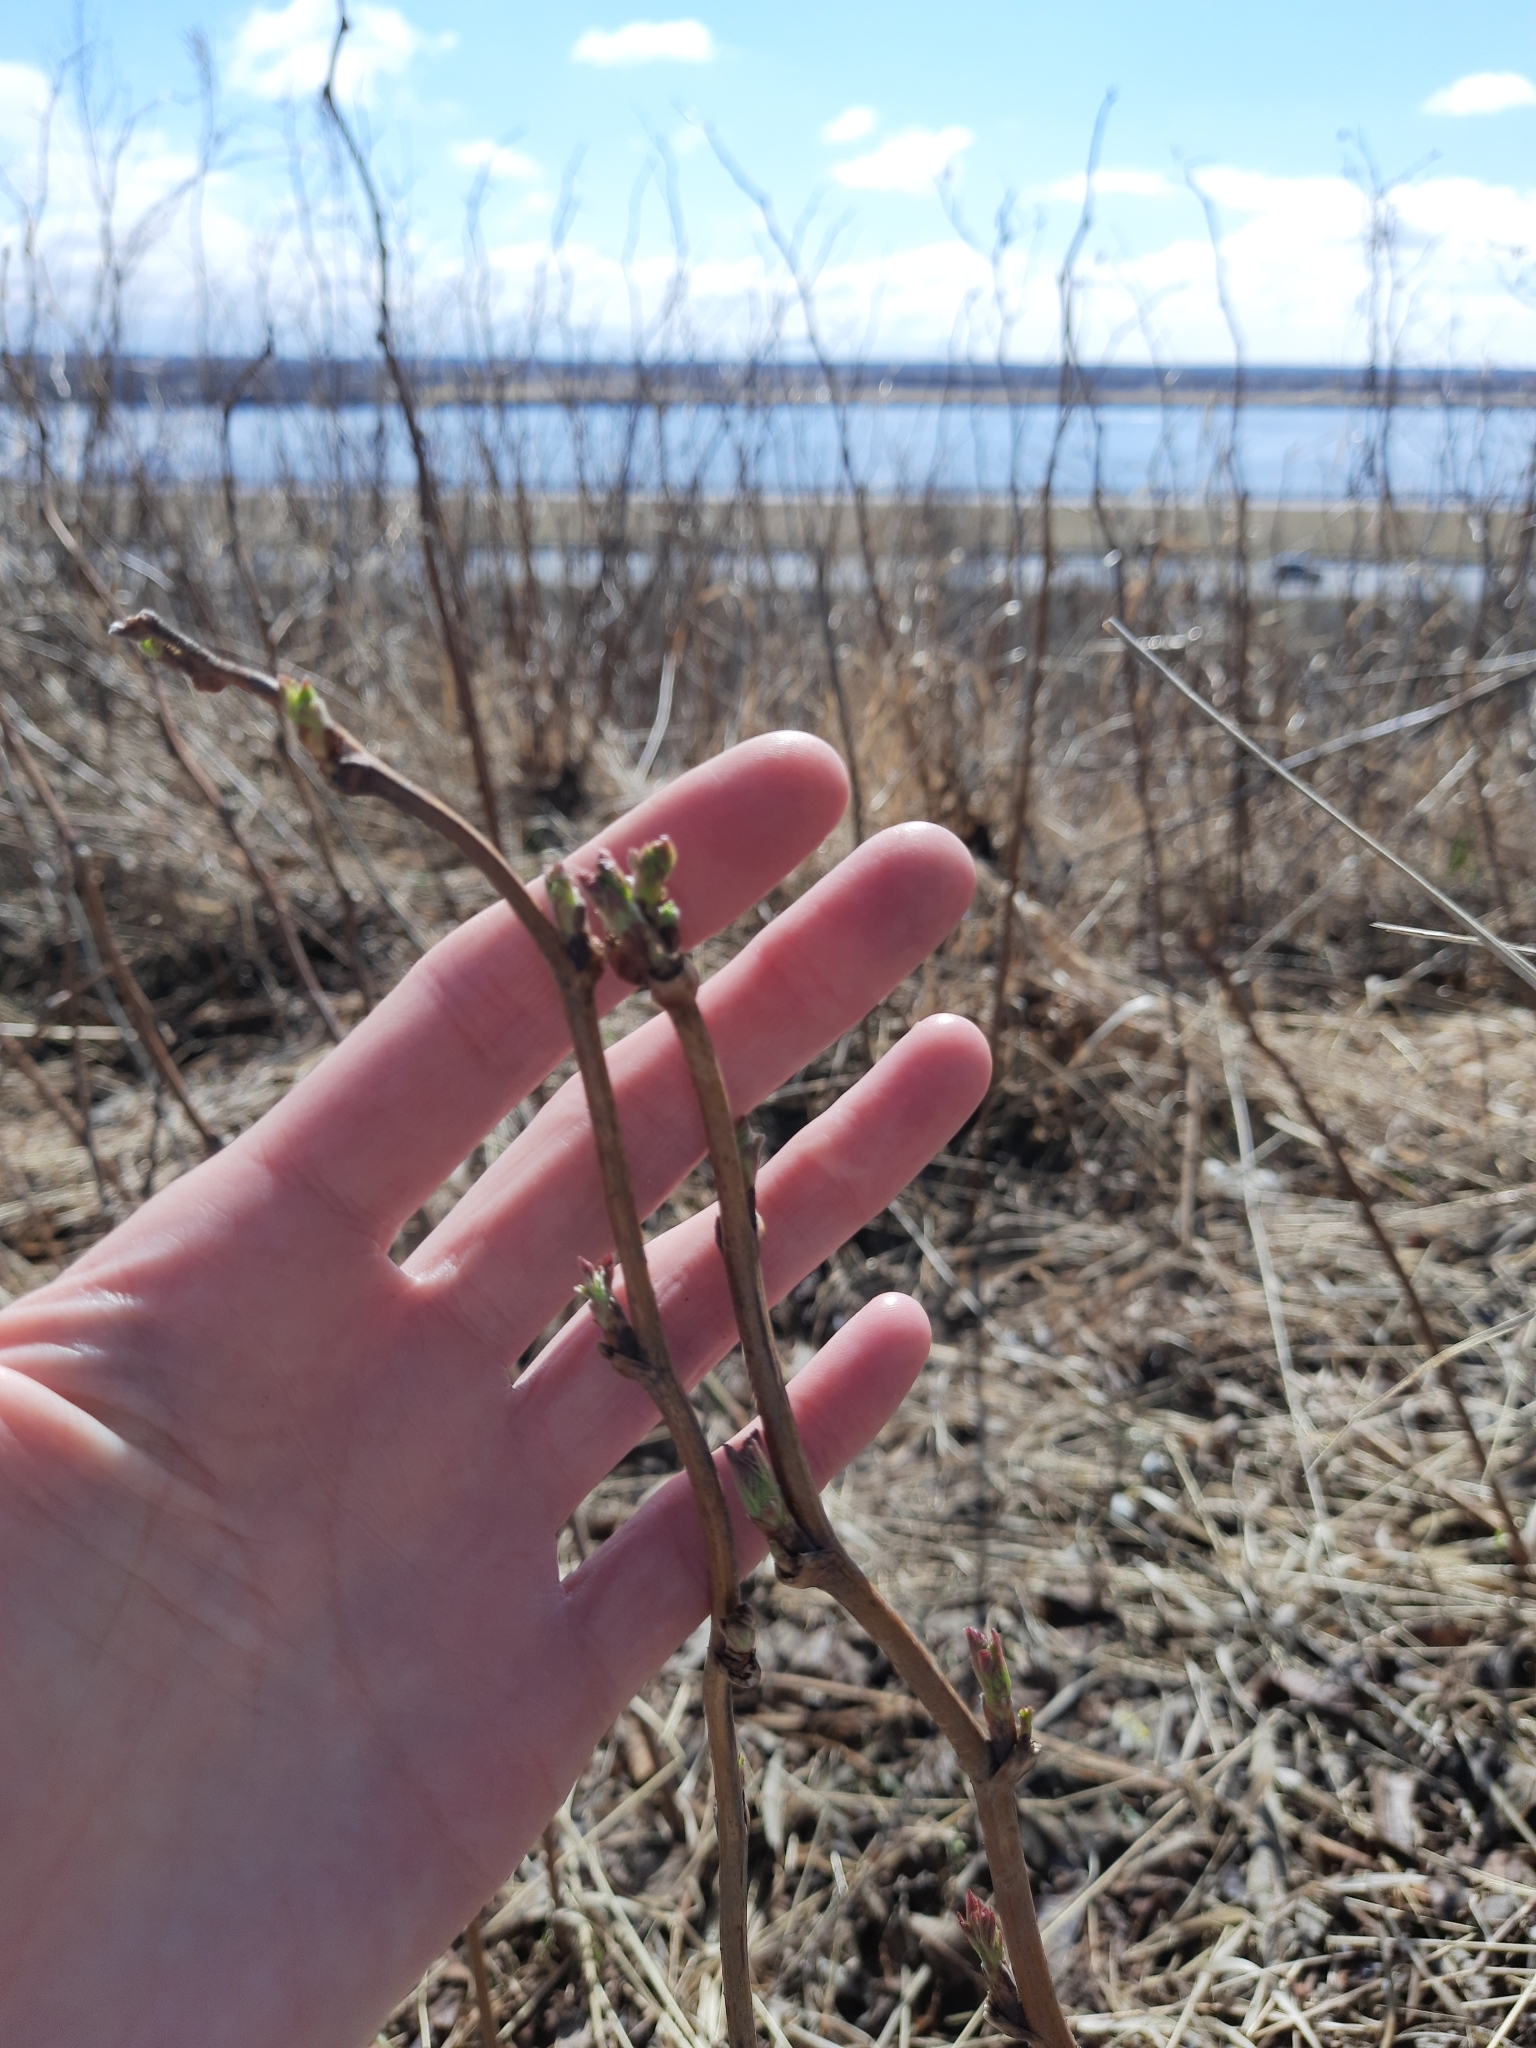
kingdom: Plantae
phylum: Tracheophyta
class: Magnoliopsida
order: Rosales
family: Rosaceae
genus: Rubus
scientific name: Rubus idaeus
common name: Raspberry
